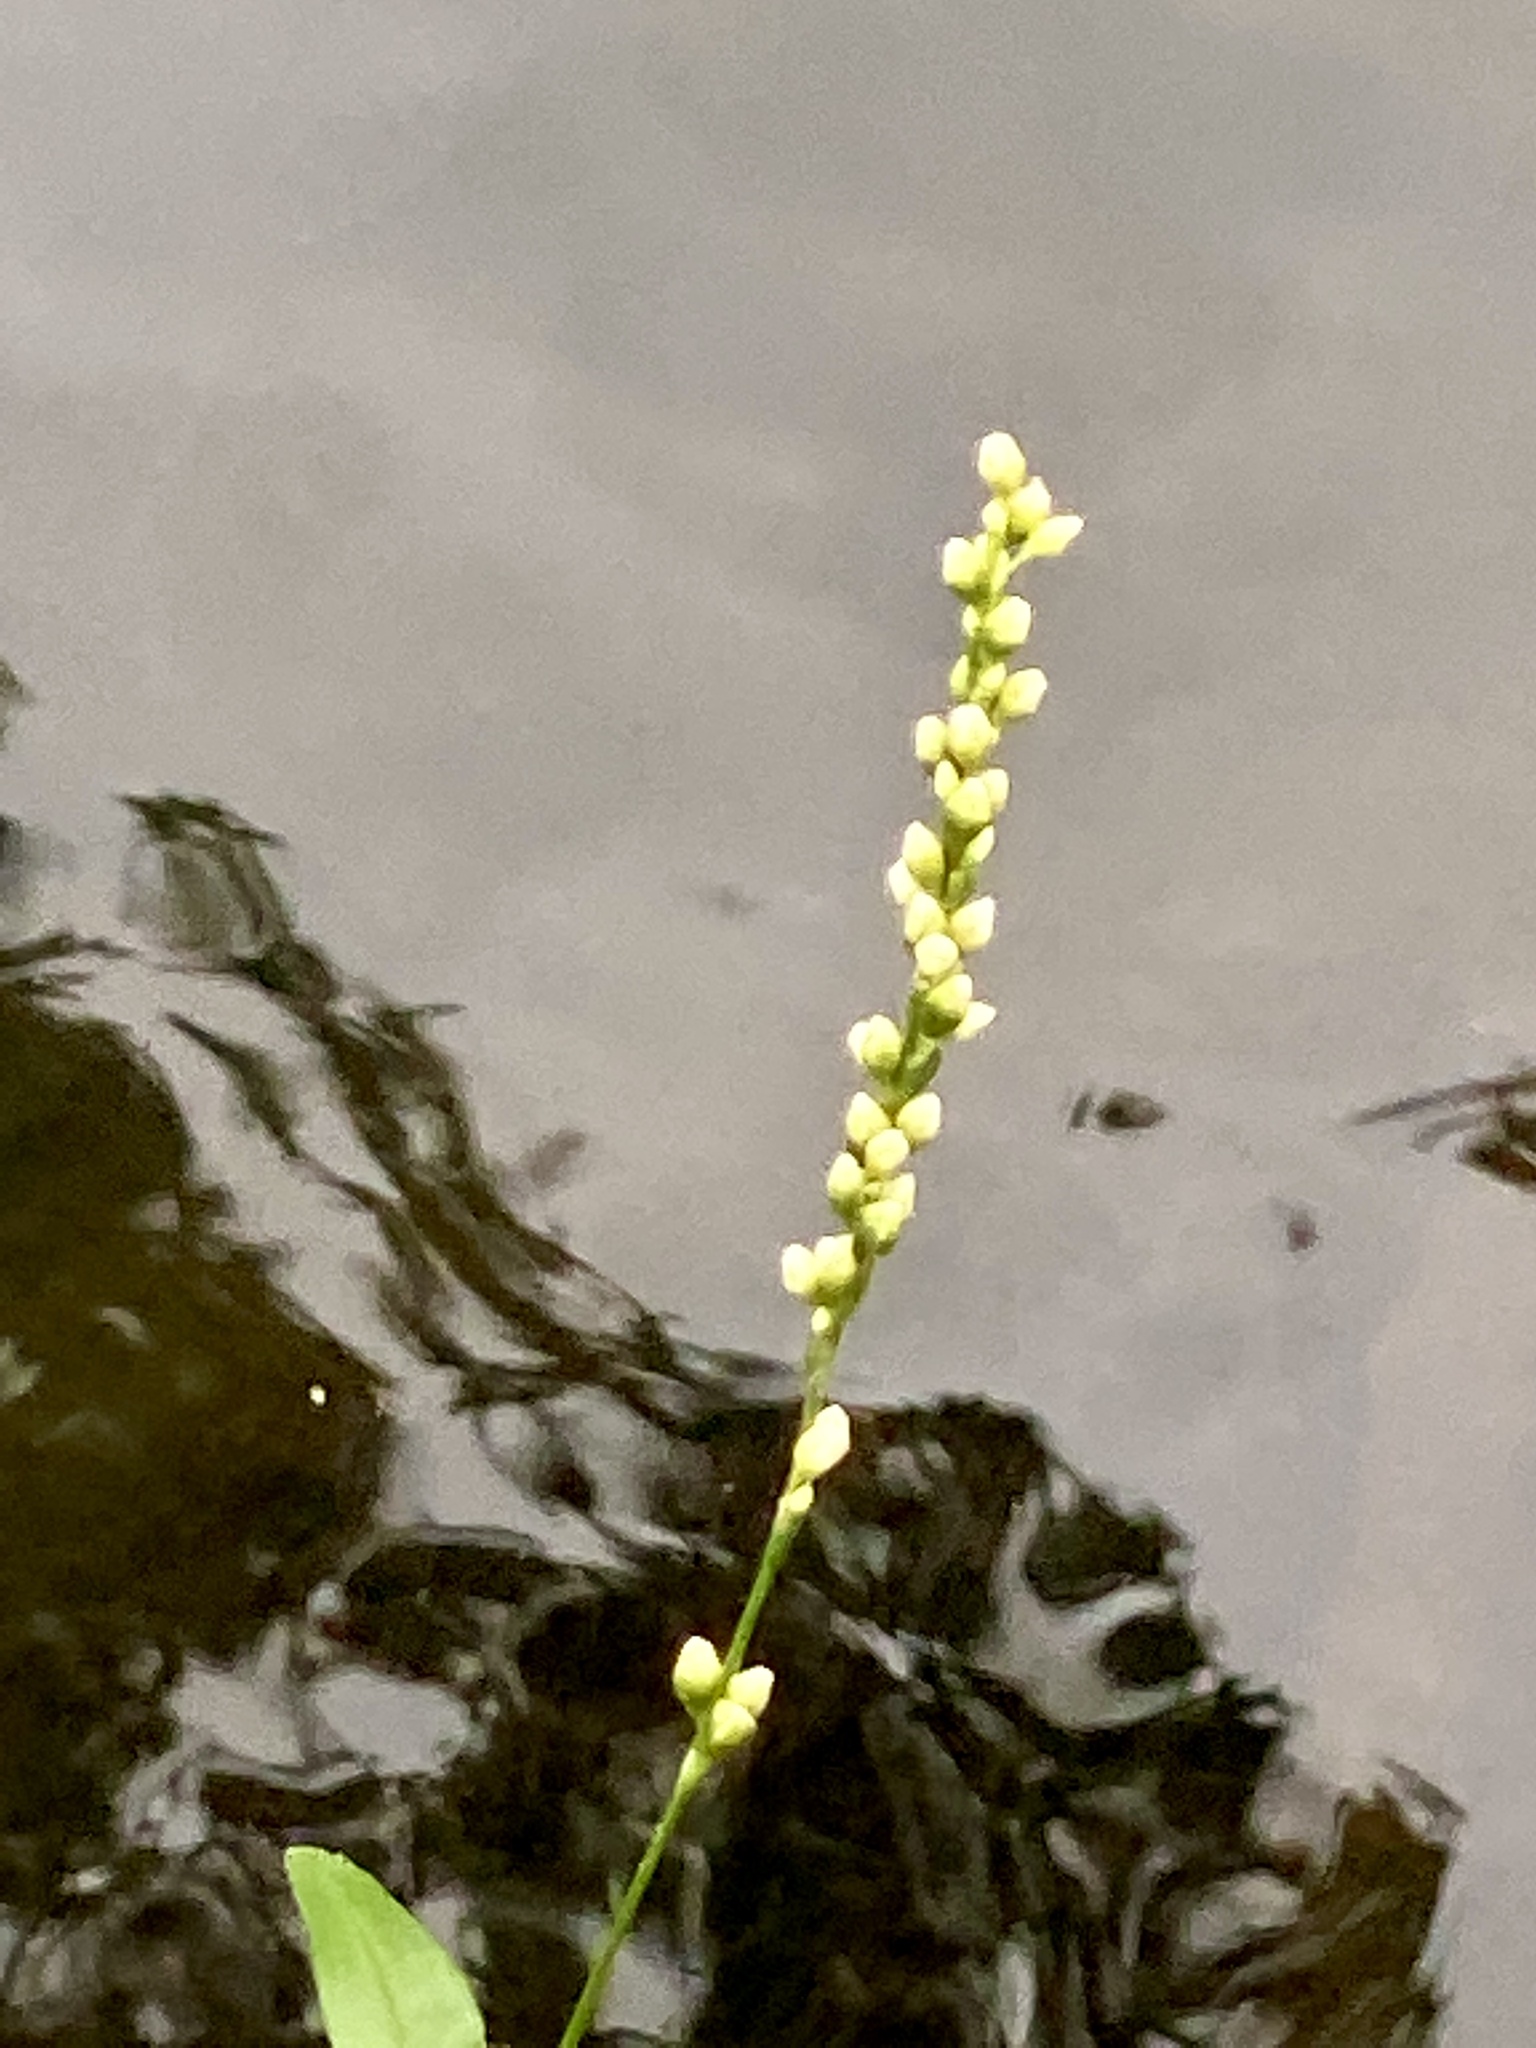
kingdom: Plantae
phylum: Tracheophyta
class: Magnoliopsida
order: Caryophyllales
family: Polygonaceae
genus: Persicaria
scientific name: Persicaria punctata
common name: Dotted smartweed
